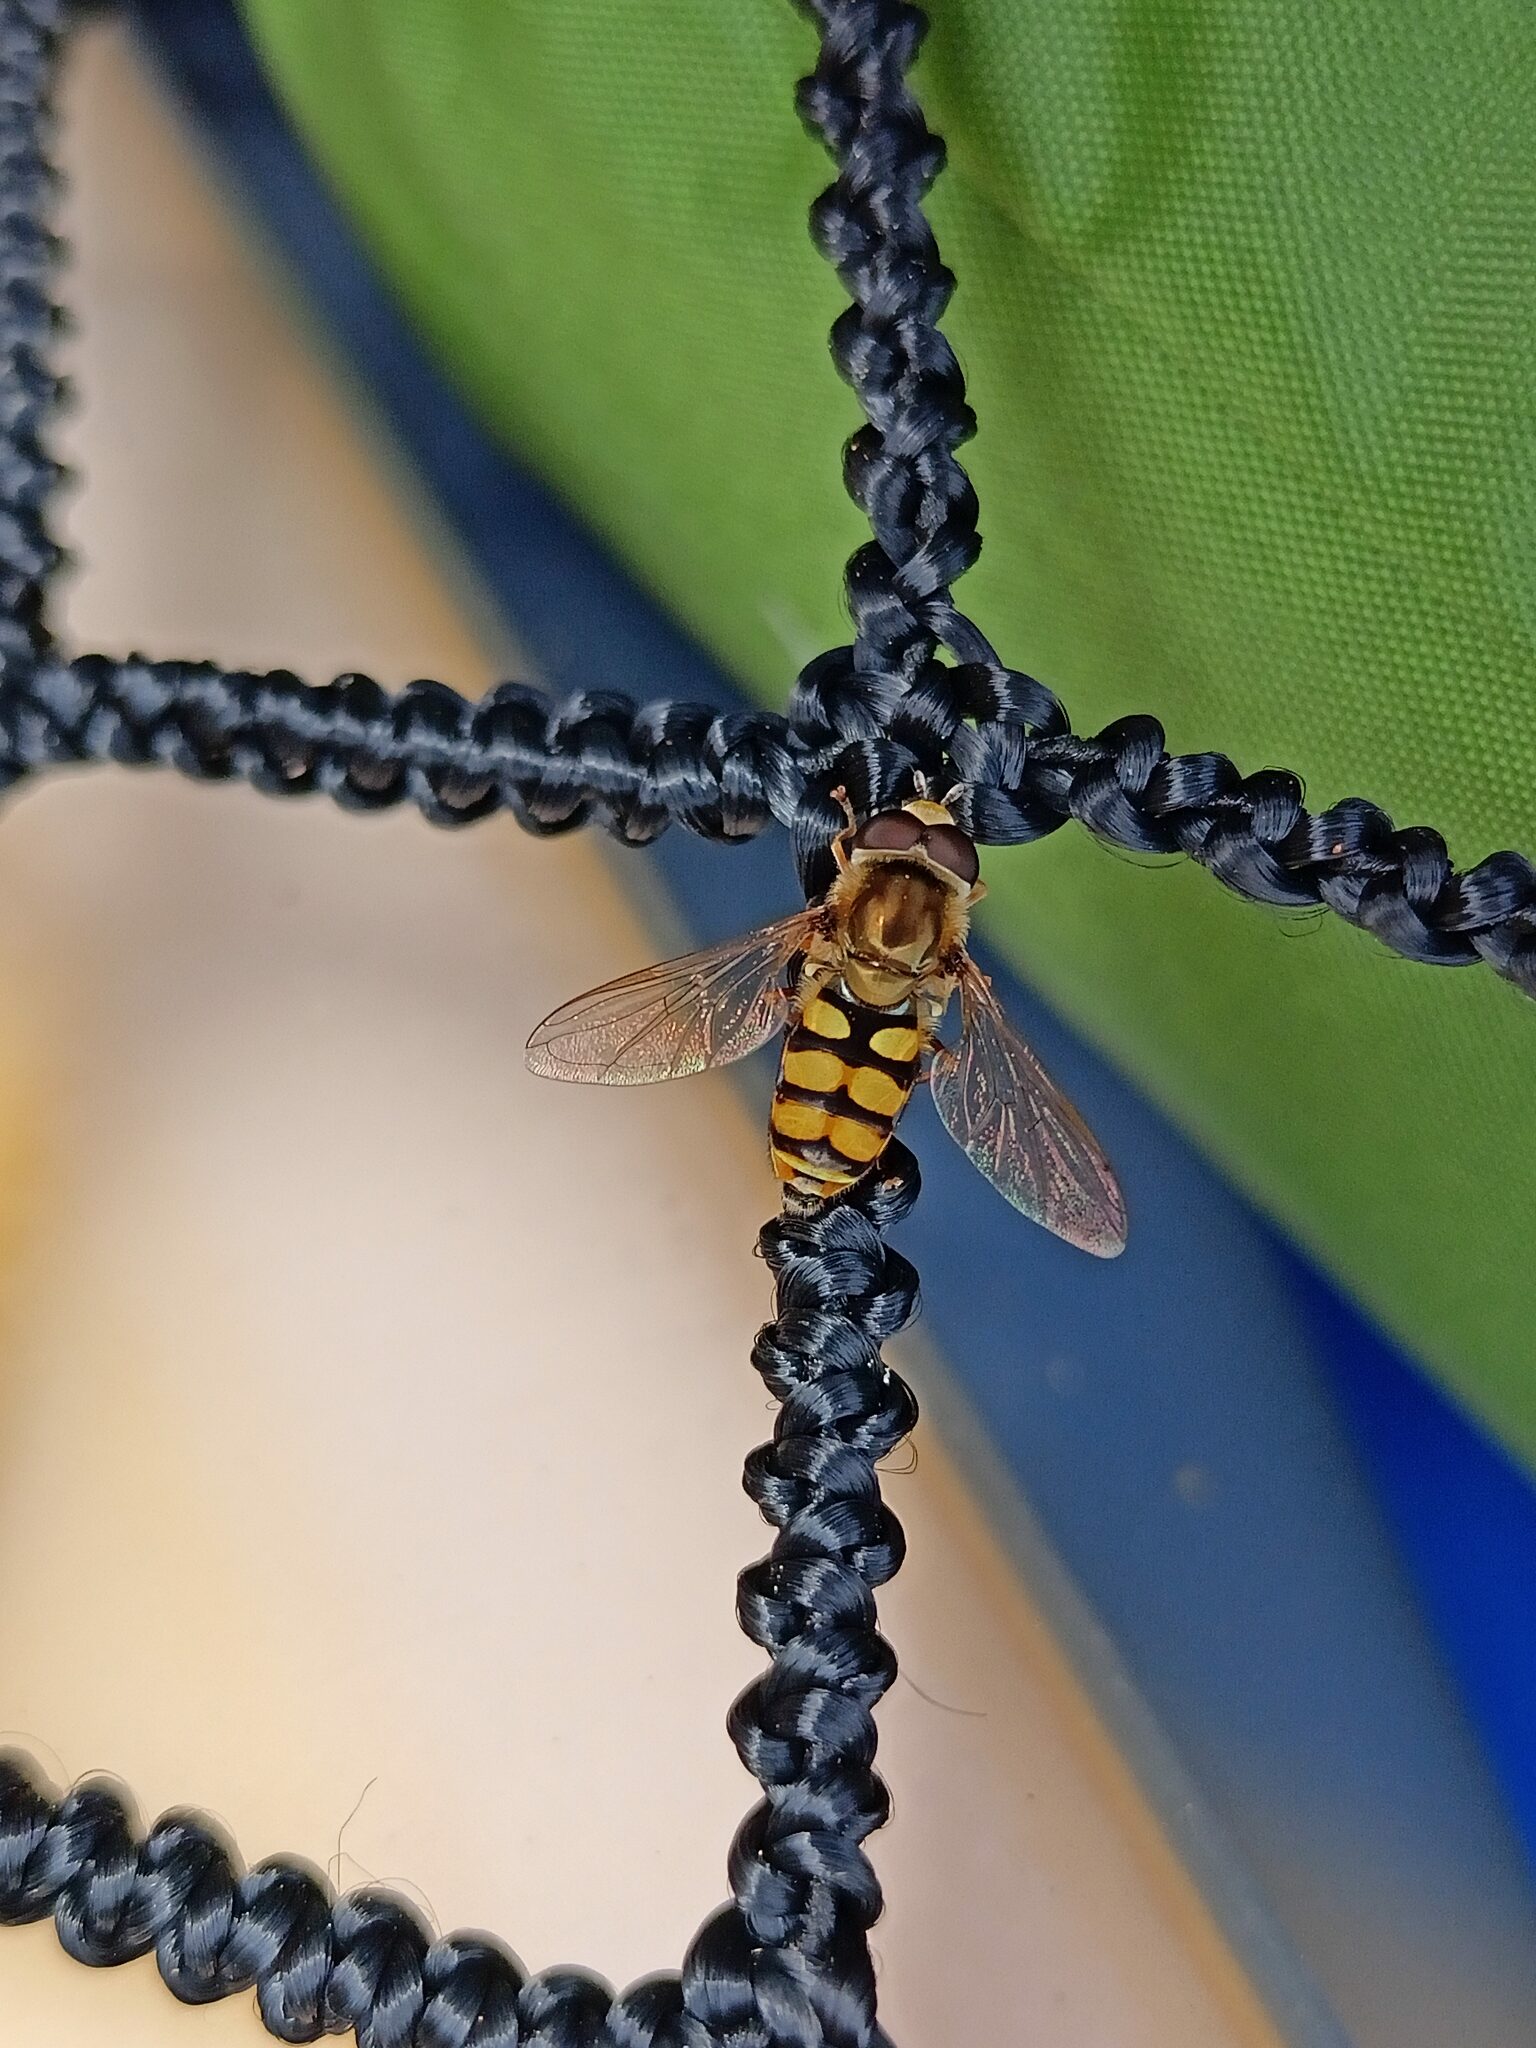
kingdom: Animalia
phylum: Arthropoda
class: Insecta
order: Diptera
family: Syrphidae
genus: Eupeodes
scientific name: Eupeodes corollae
